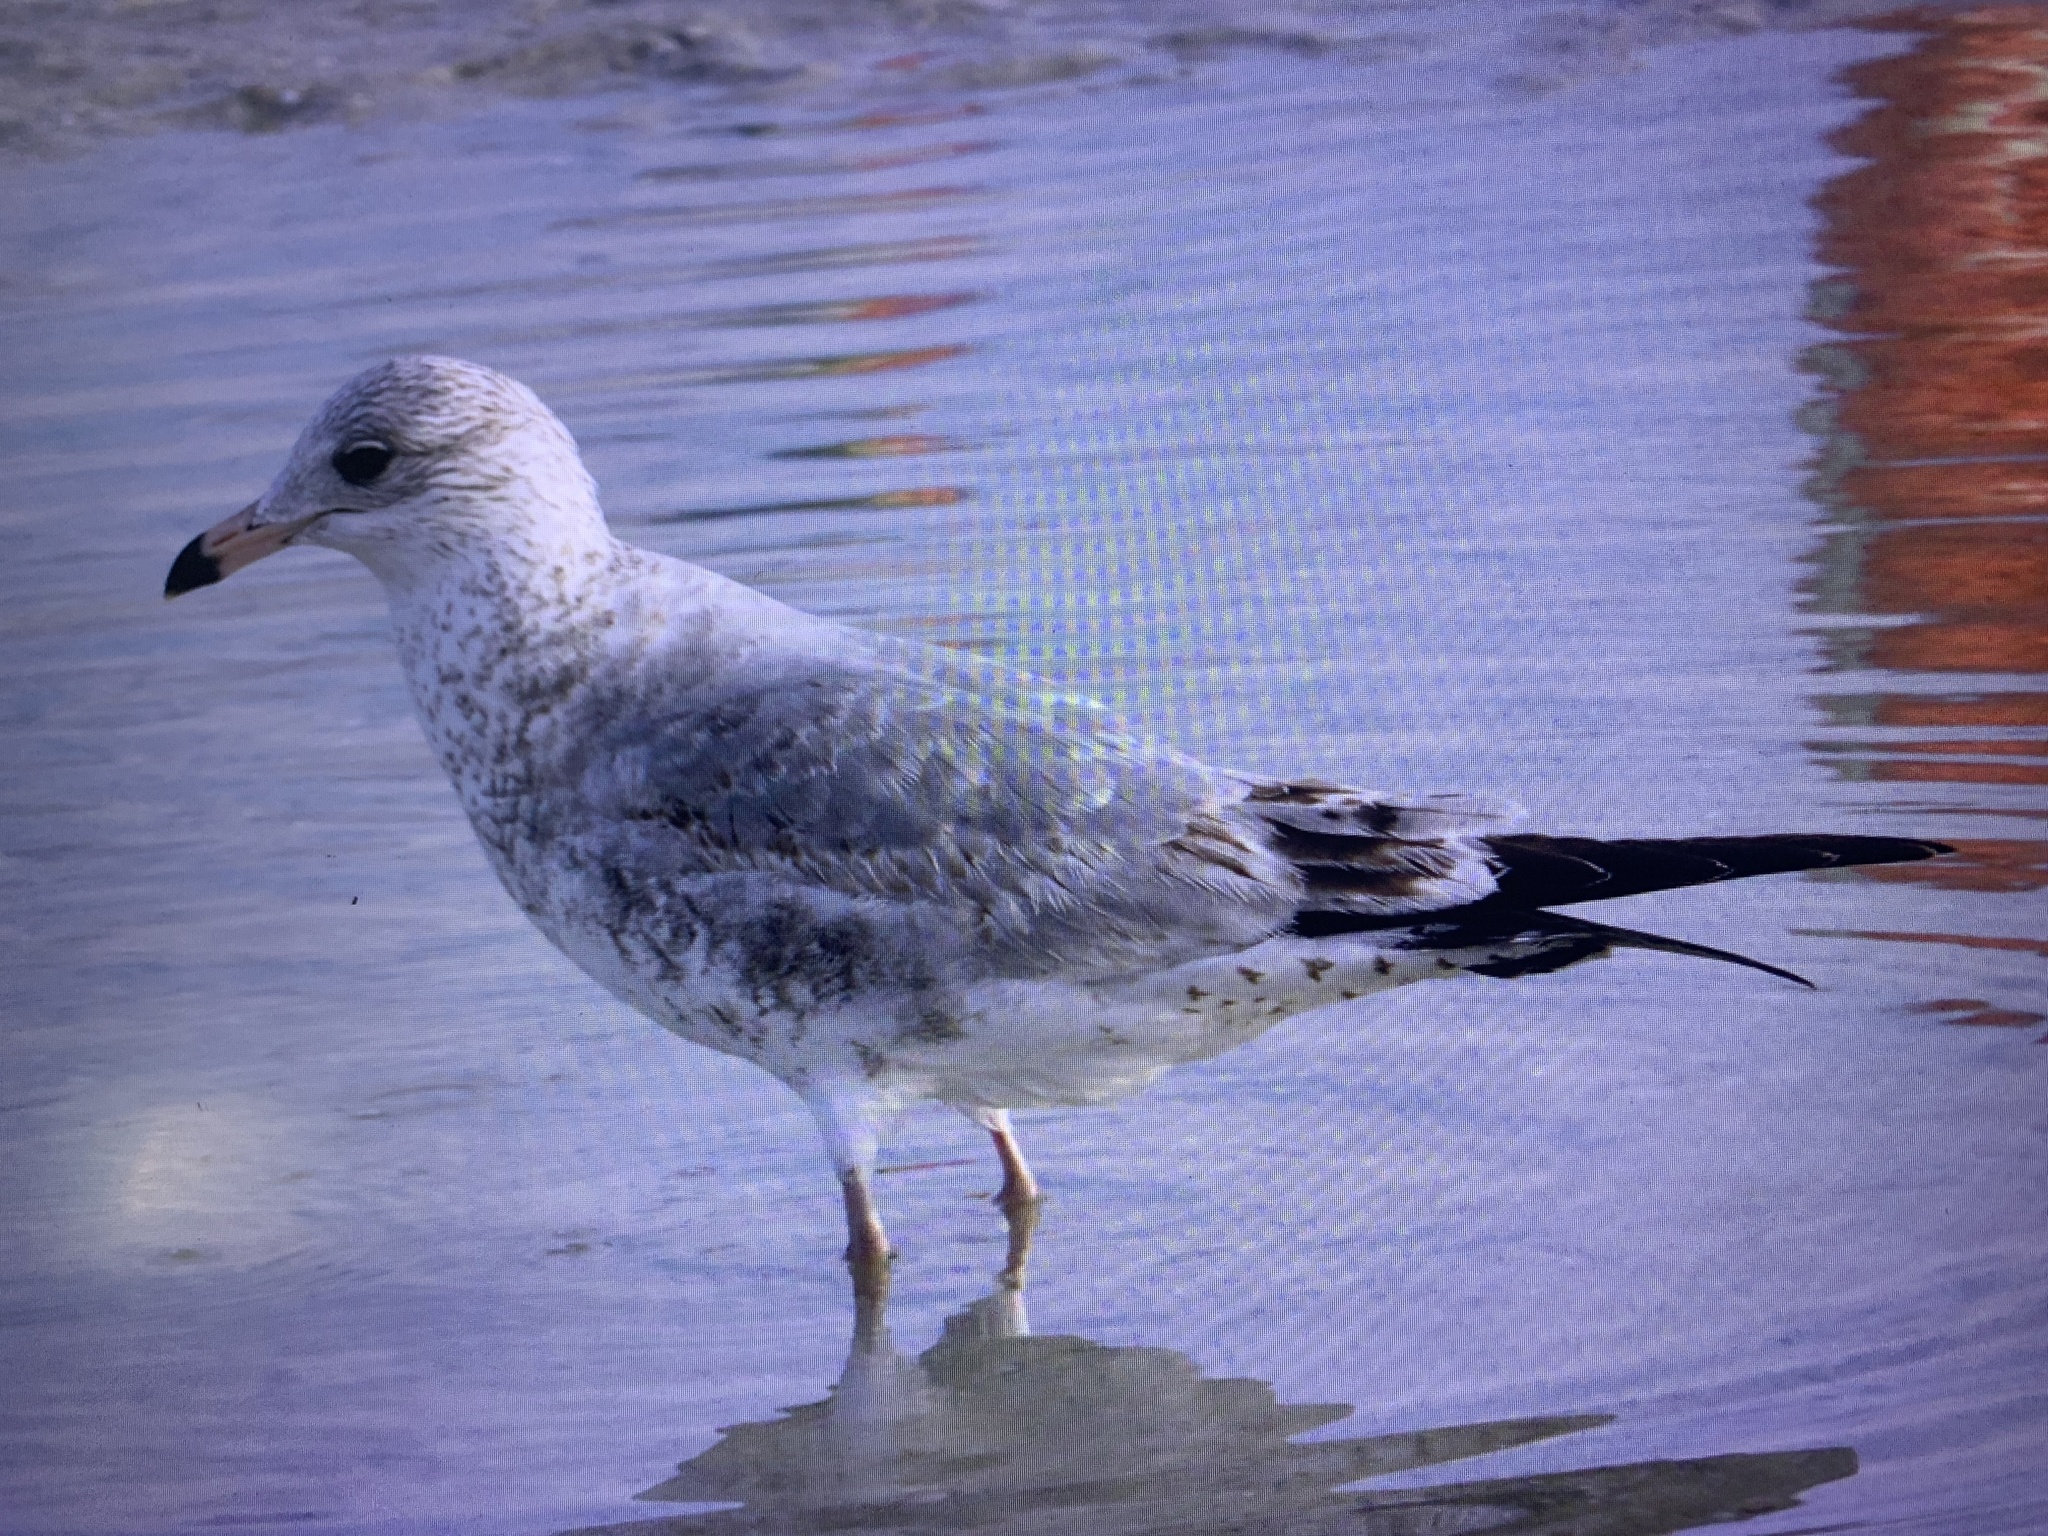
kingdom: Animalia
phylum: Chordata
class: Aves
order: Charadriiformes
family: Laridae
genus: Larus
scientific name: Larus delawarensis
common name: Ring-billed gull
